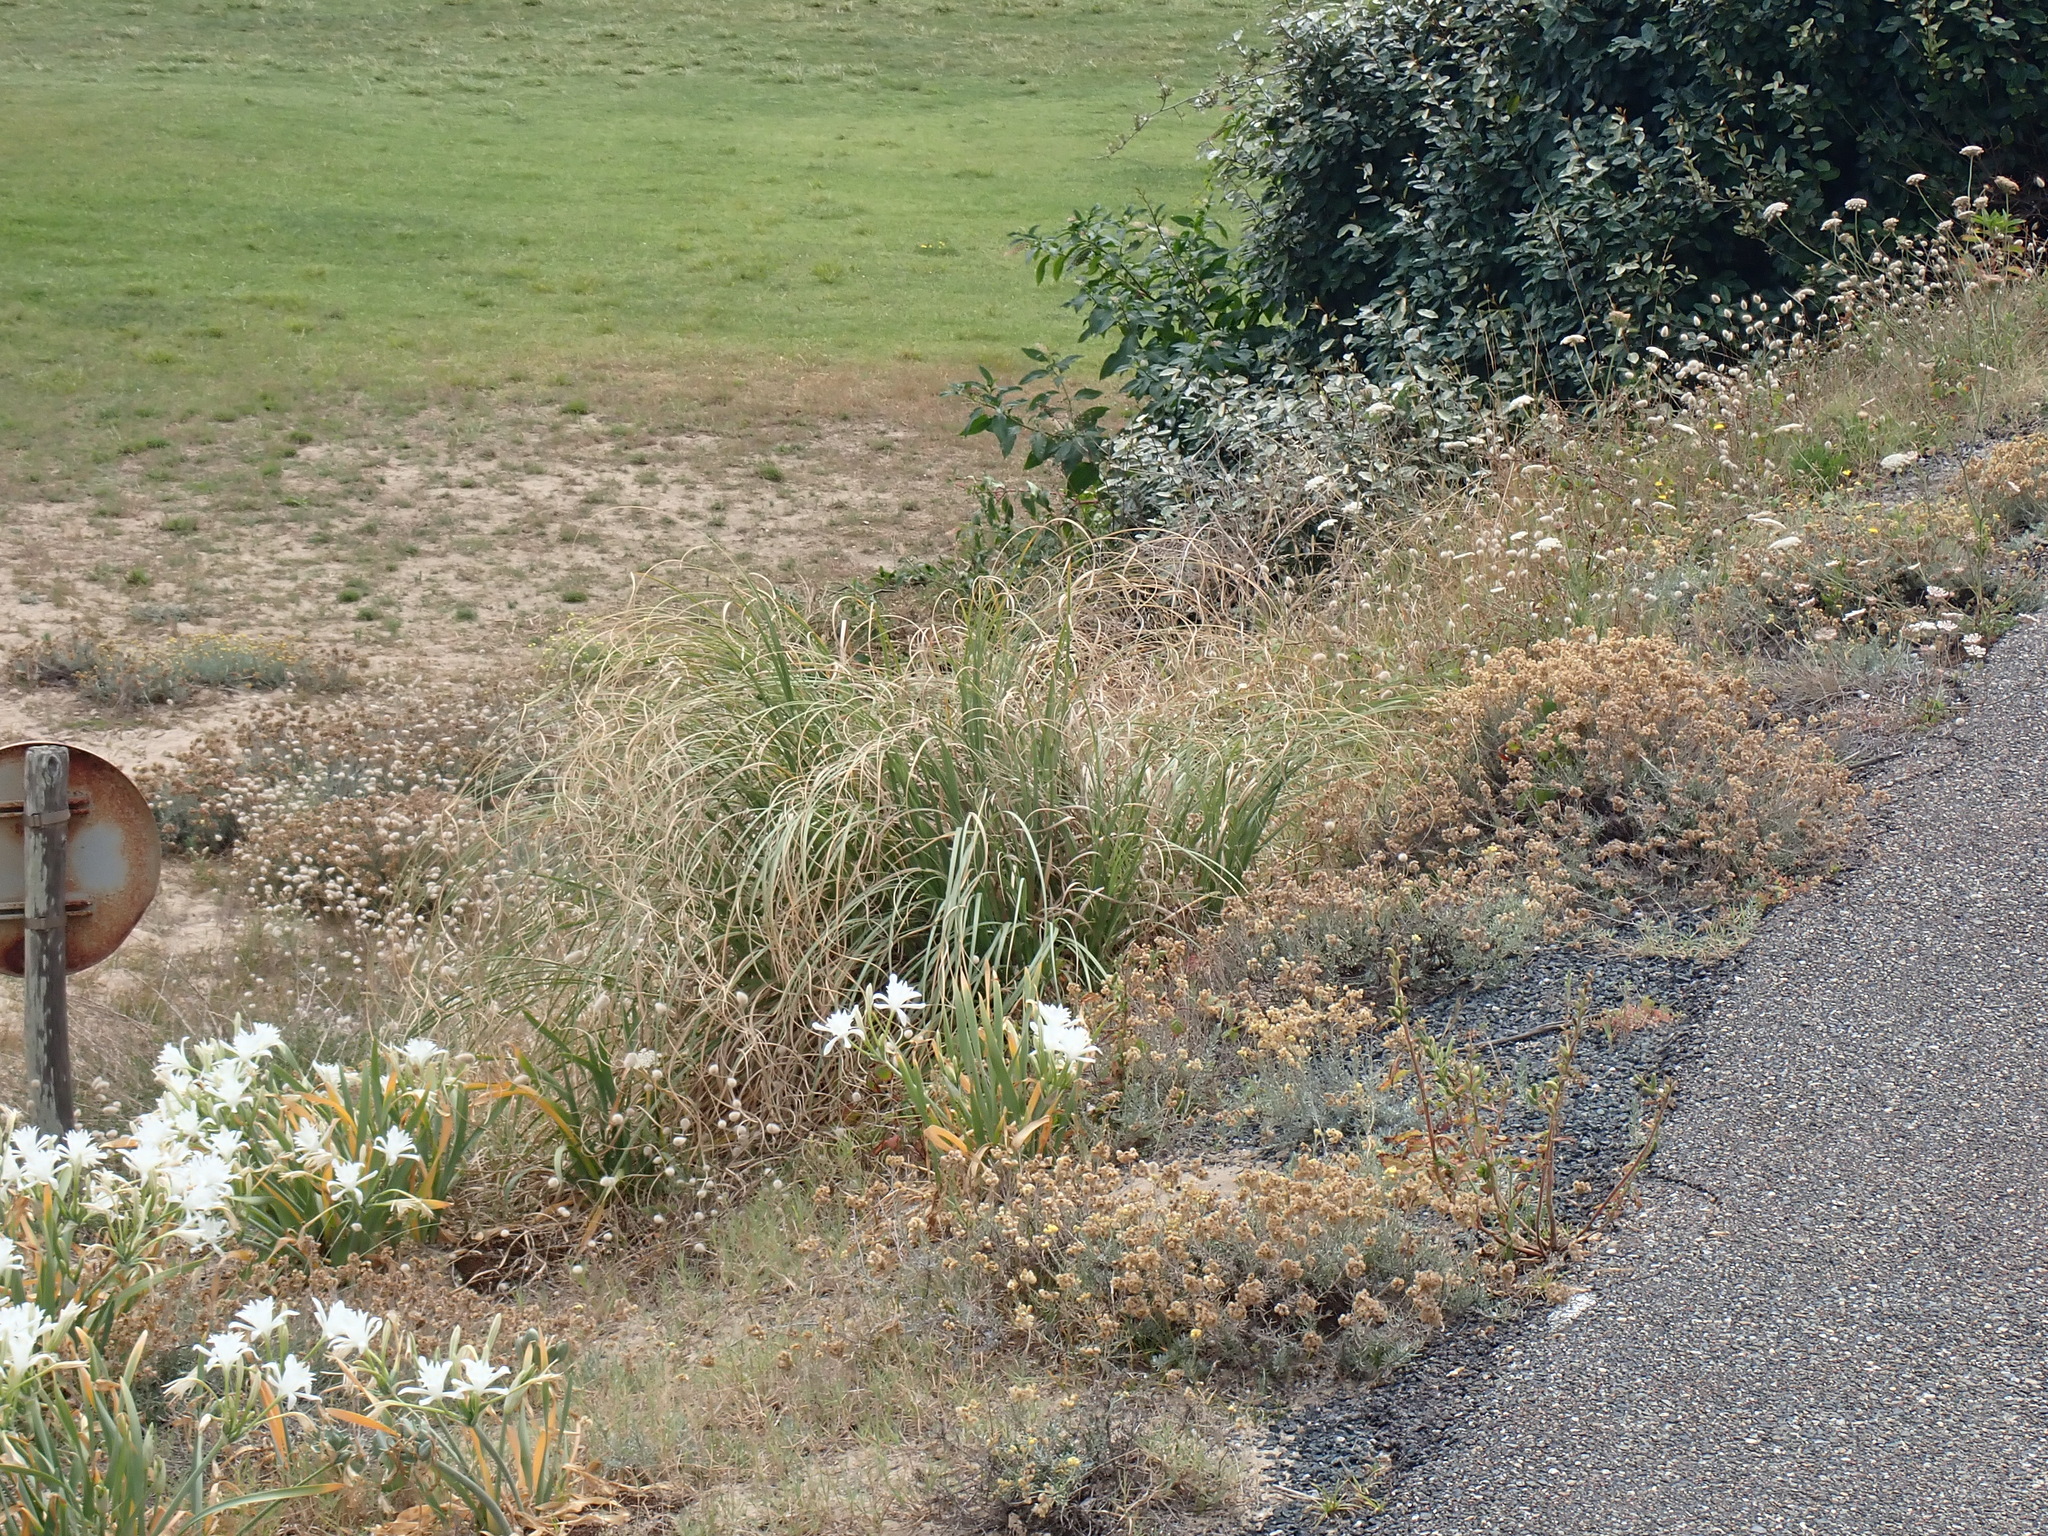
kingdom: Plantae
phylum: Tracheophyta
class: Liliopsida
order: Asparagales
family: Amaryllidaceae
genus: Pancratium
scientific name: Pancratium maritimum
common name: Sea-daffodil
